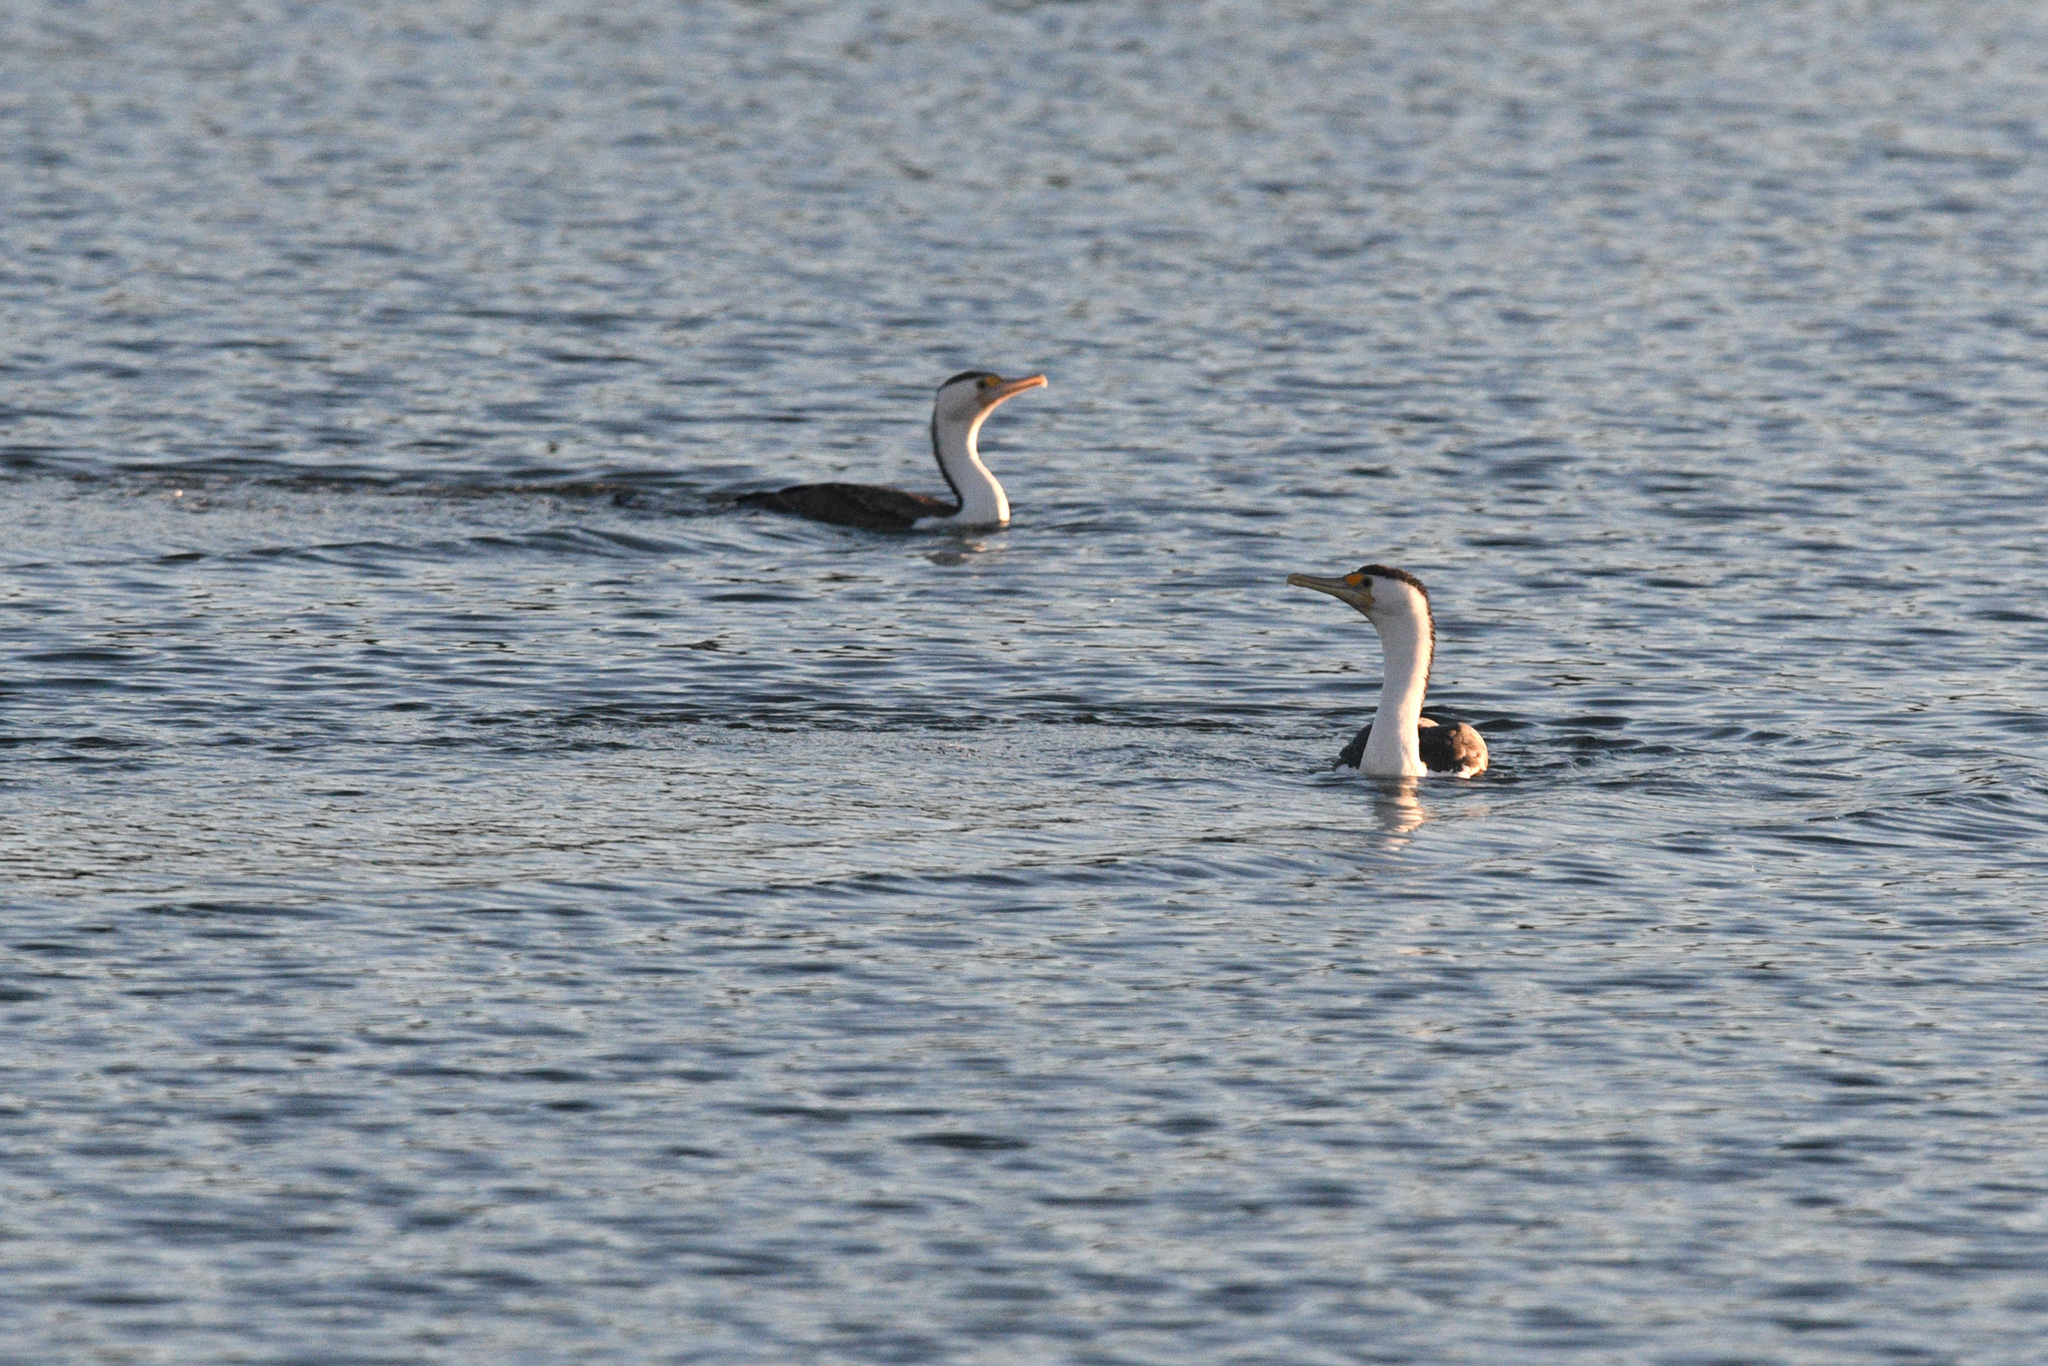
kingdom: Animalia
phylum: Chordata
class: Aves
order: Suliformes
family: Phalacrocoracidae
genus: Phalacrocorax
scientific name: Phalacrocorax varius
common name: Pied cormorant
